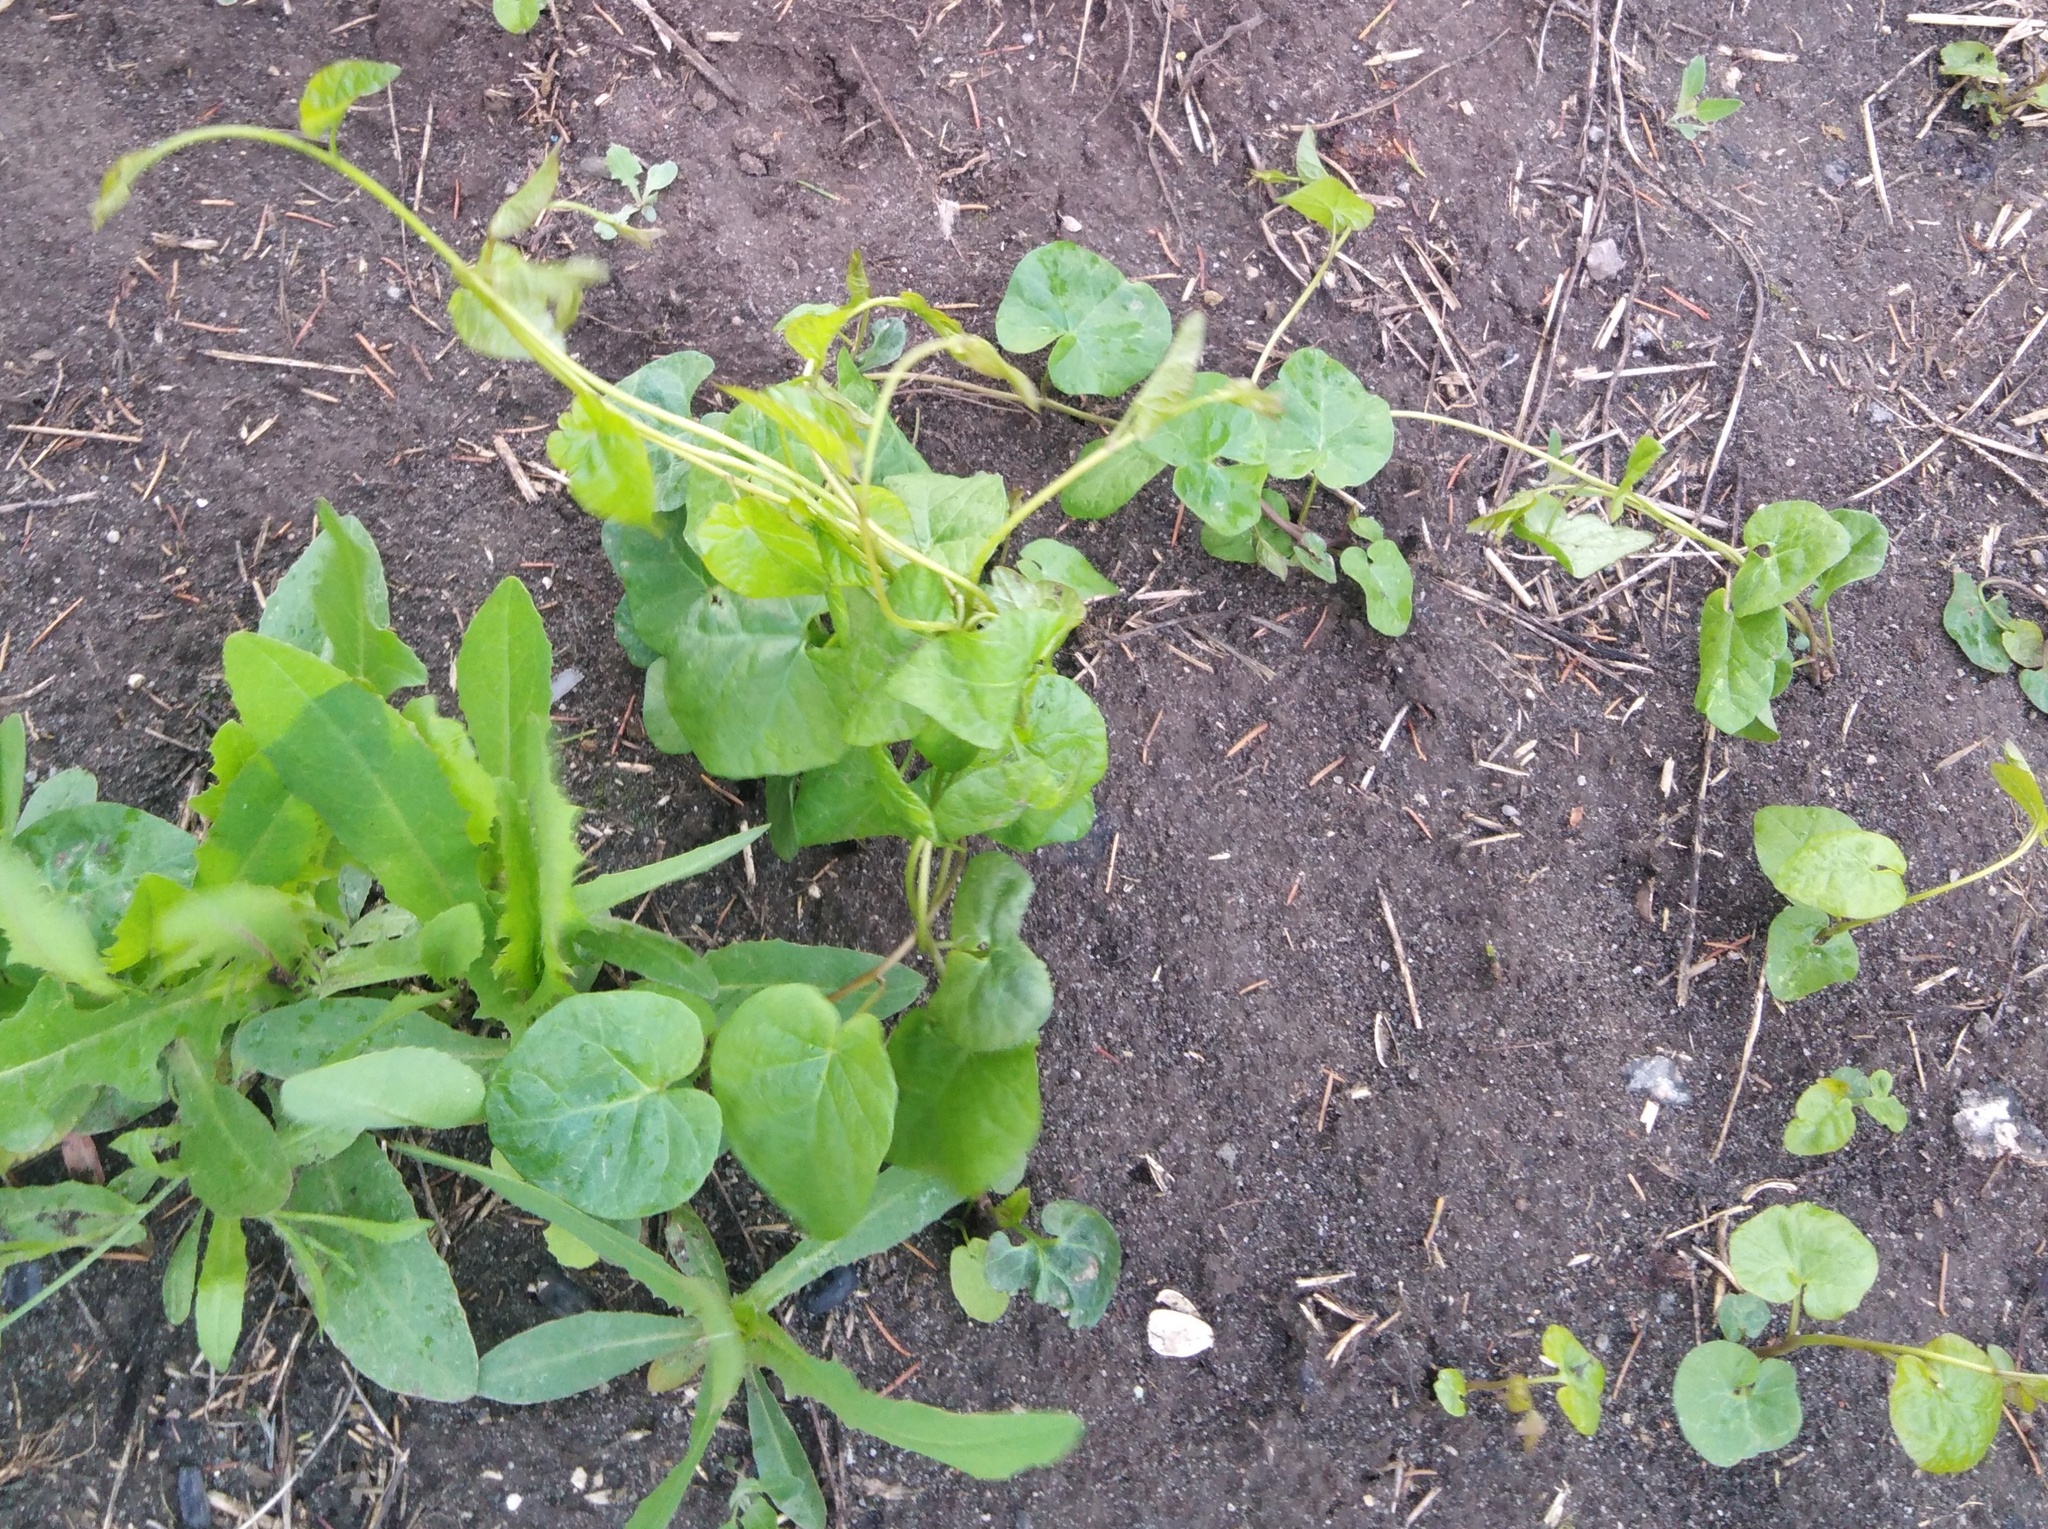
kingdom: Plantae
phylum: Tracheophyta
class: Magnoliopsida
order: Caryophyllales
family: Polygonaceae
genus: Fallopia
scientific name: Fallopia convolvulus
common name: Black bindweed
